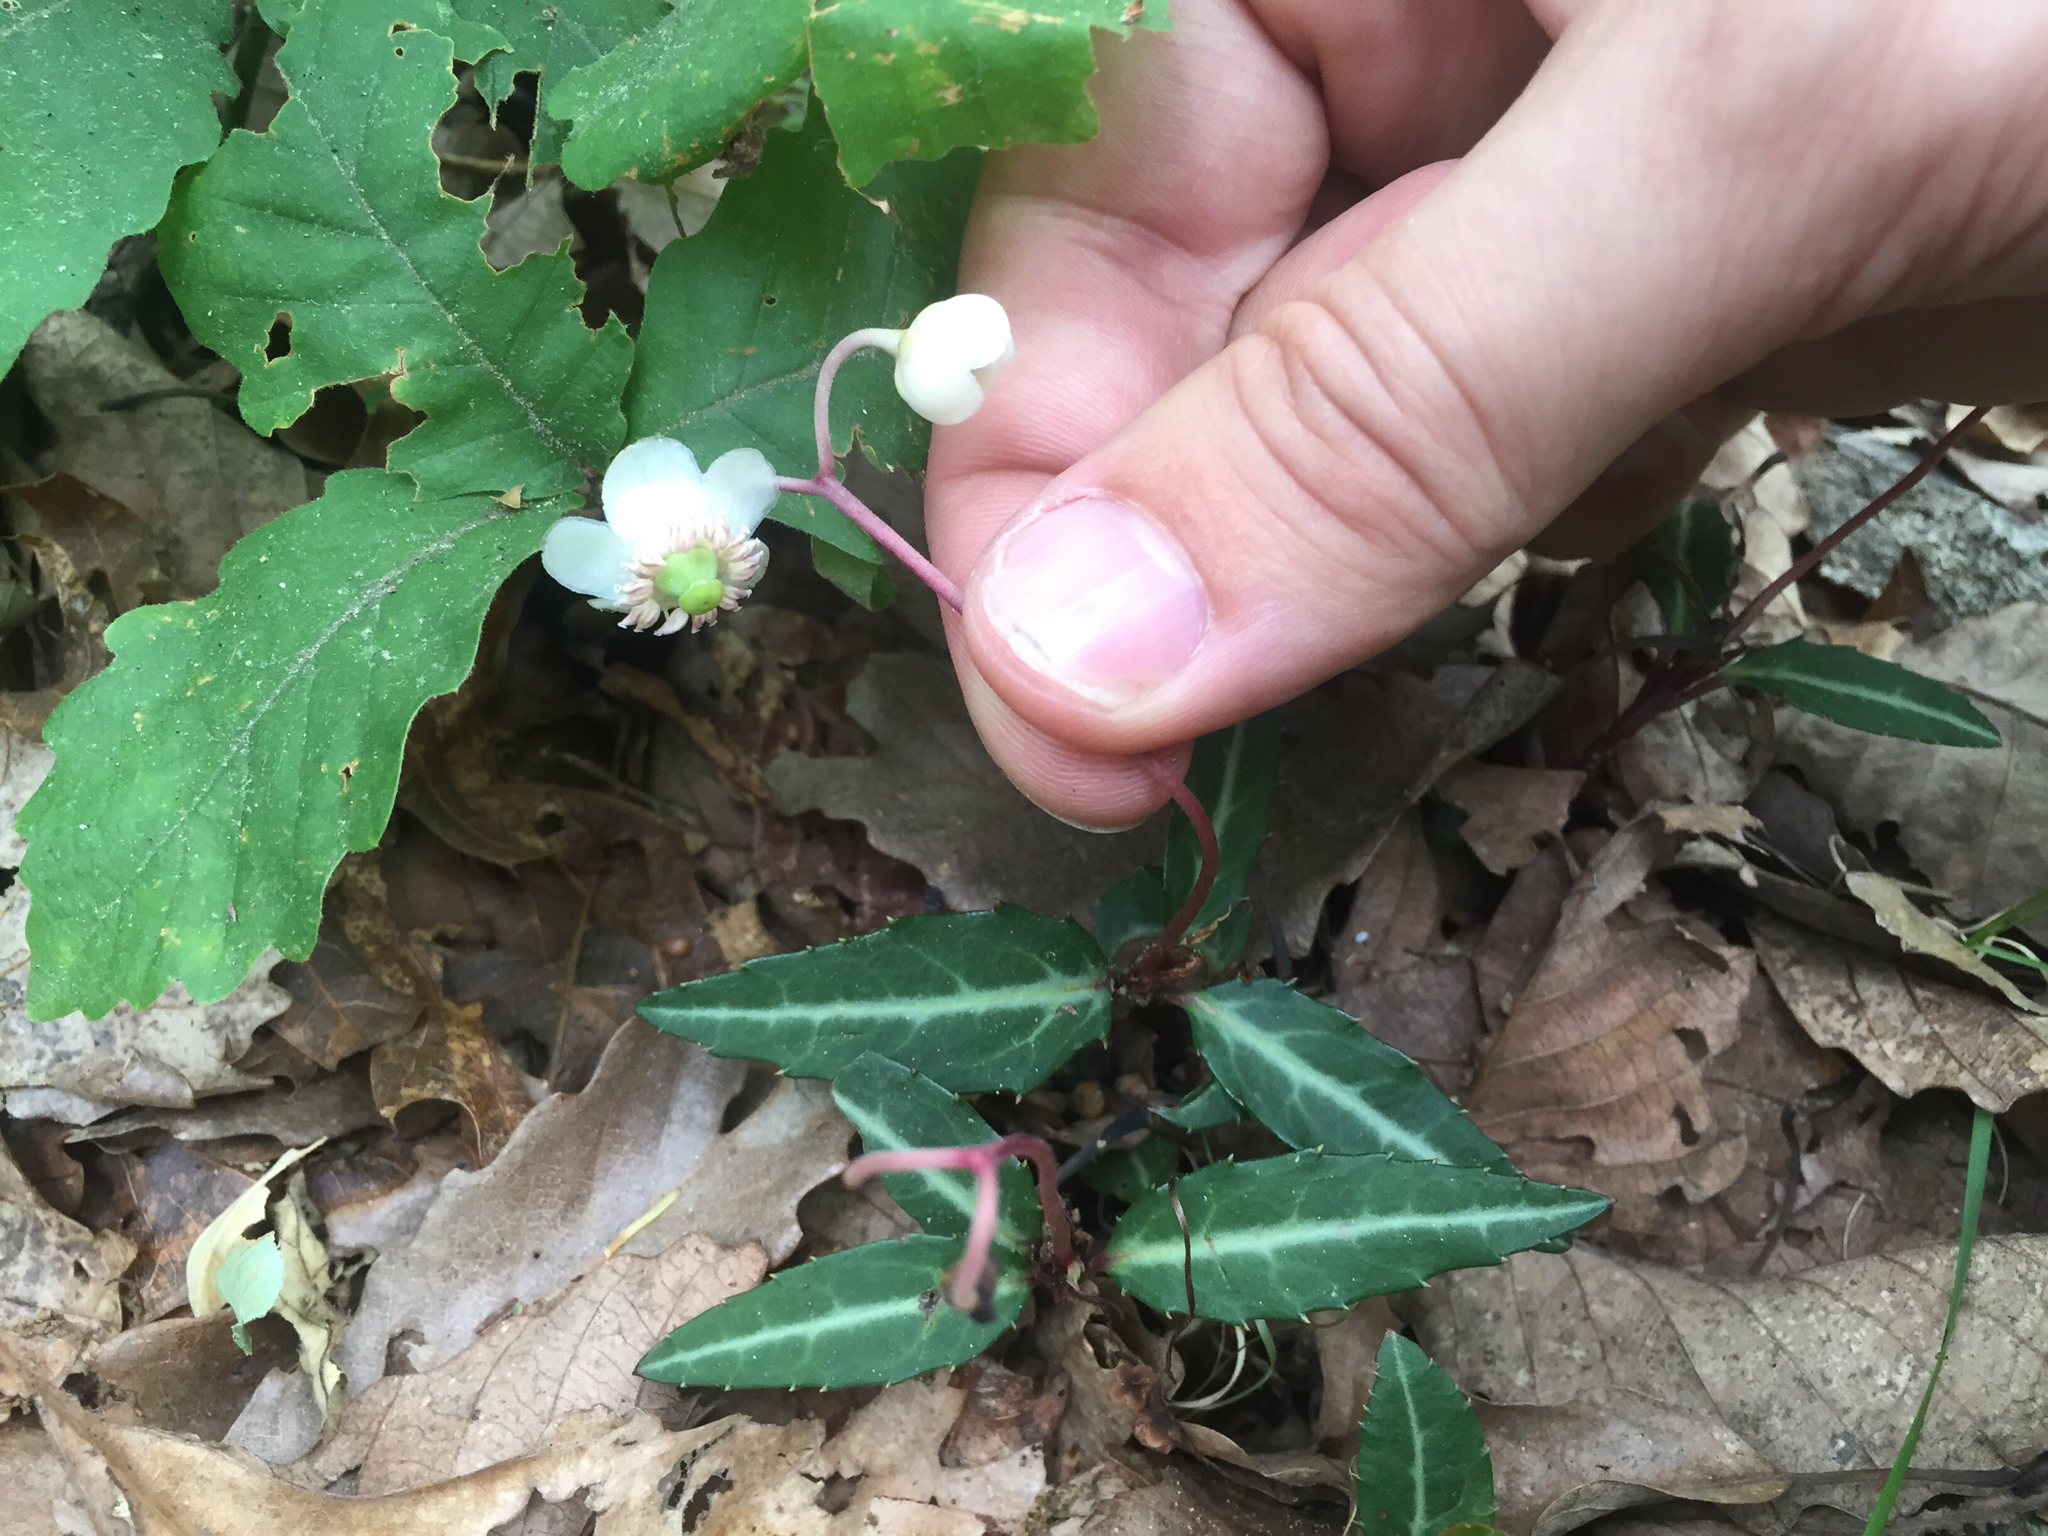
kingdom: Plantae
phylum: Tracheophyta
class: Magnoliopsida
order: Ericales
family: Ericaceae
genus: Chimaphila
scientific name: Chimaphila maculata
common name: Spotted pipsissewa
